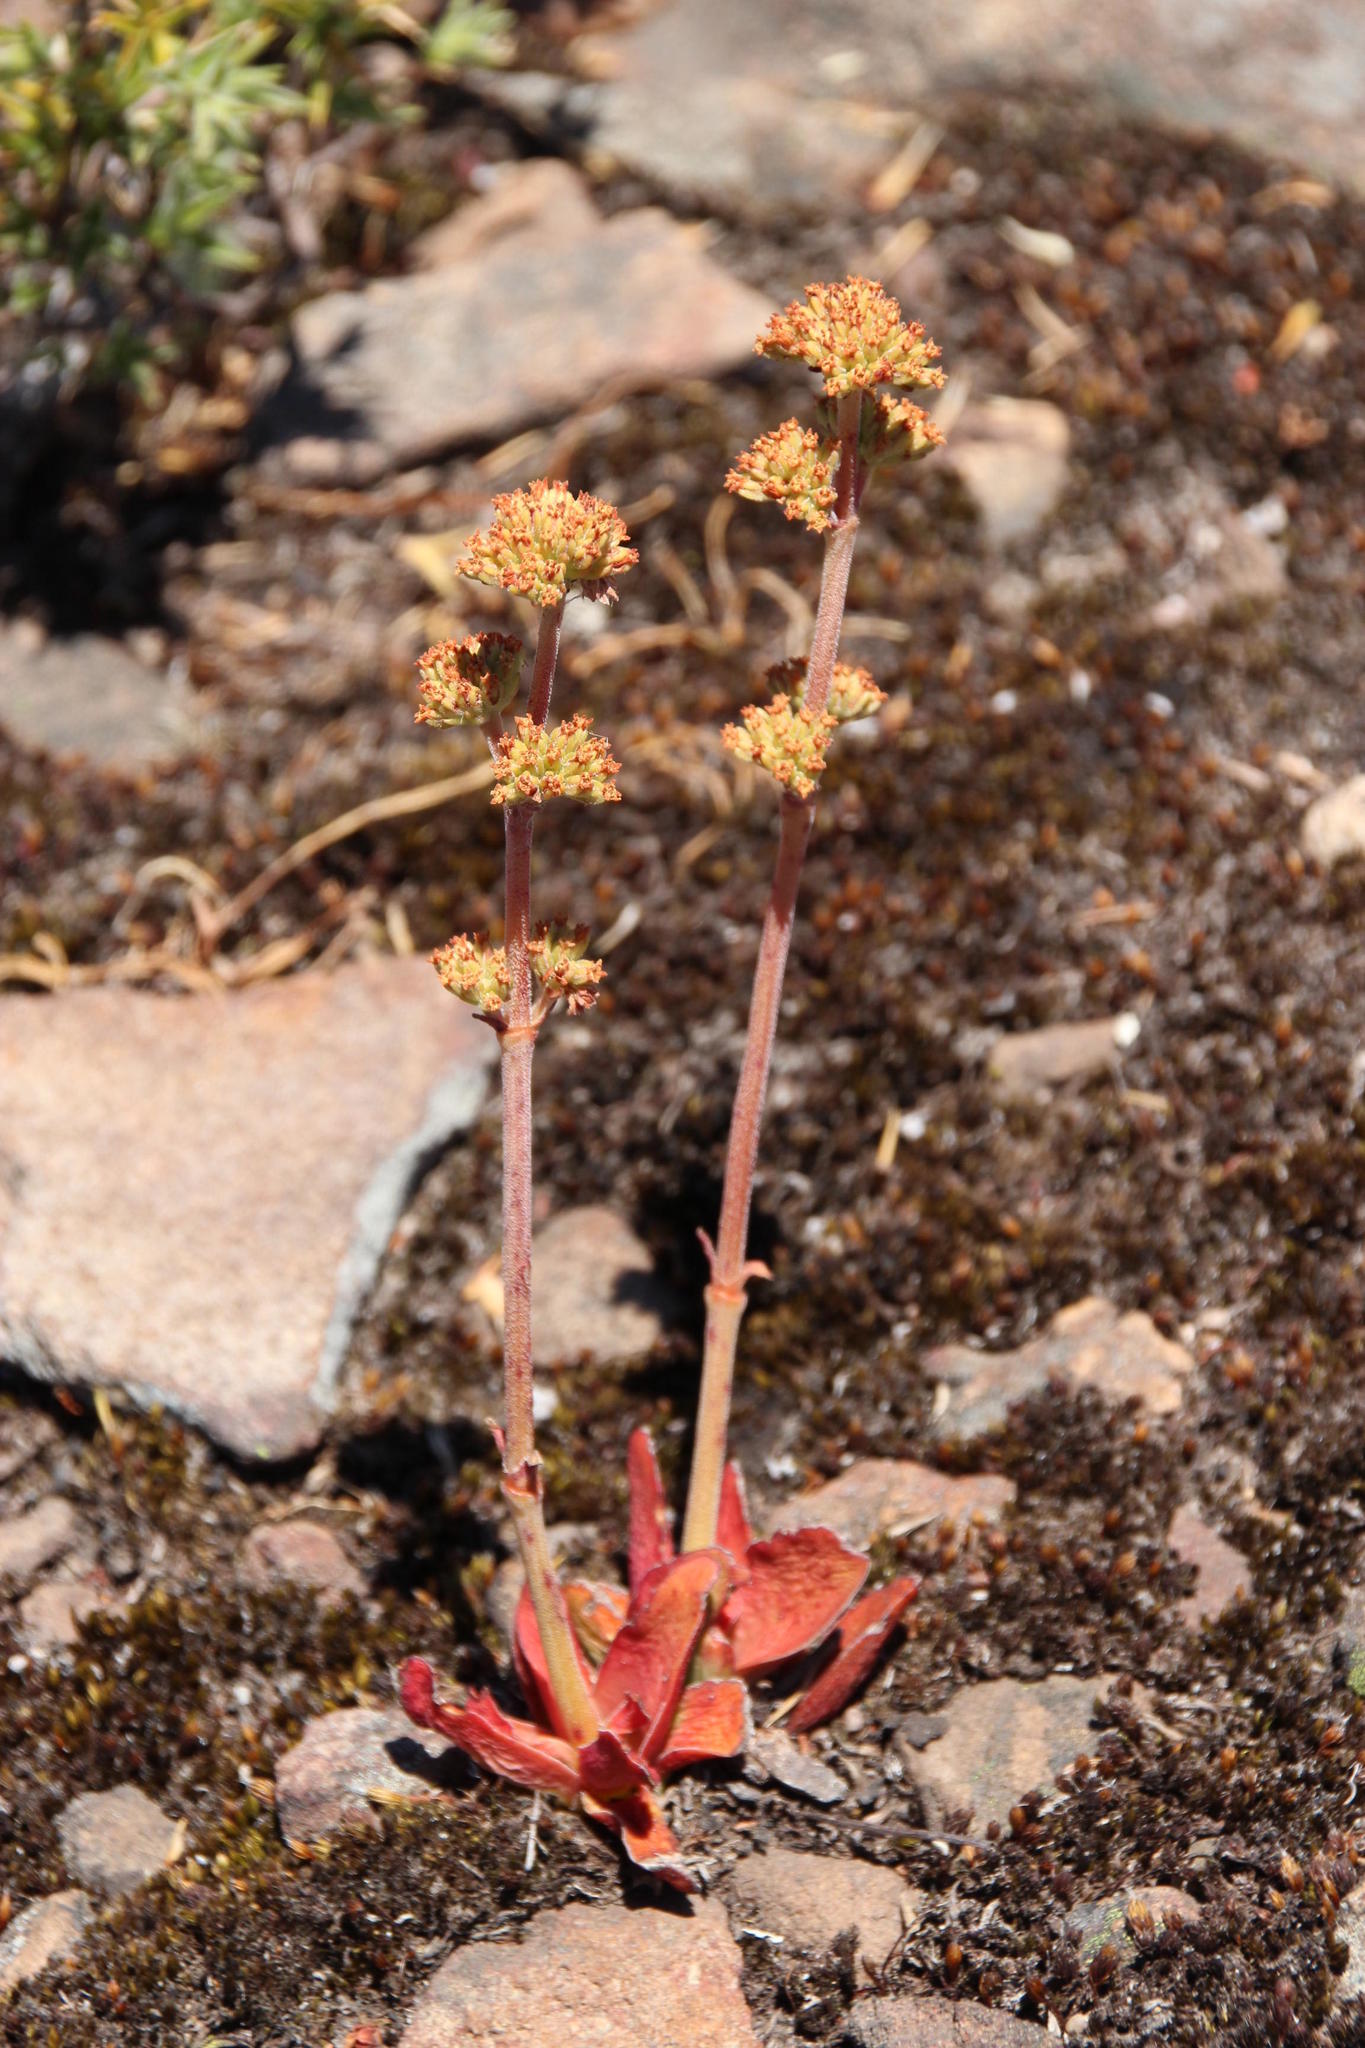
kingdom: Plantae
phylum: Tracheophyta
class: Magnoliopsida
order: Saxifragales
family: Crassulaceae
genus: Crassula
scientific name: Crassula nudicaulis
